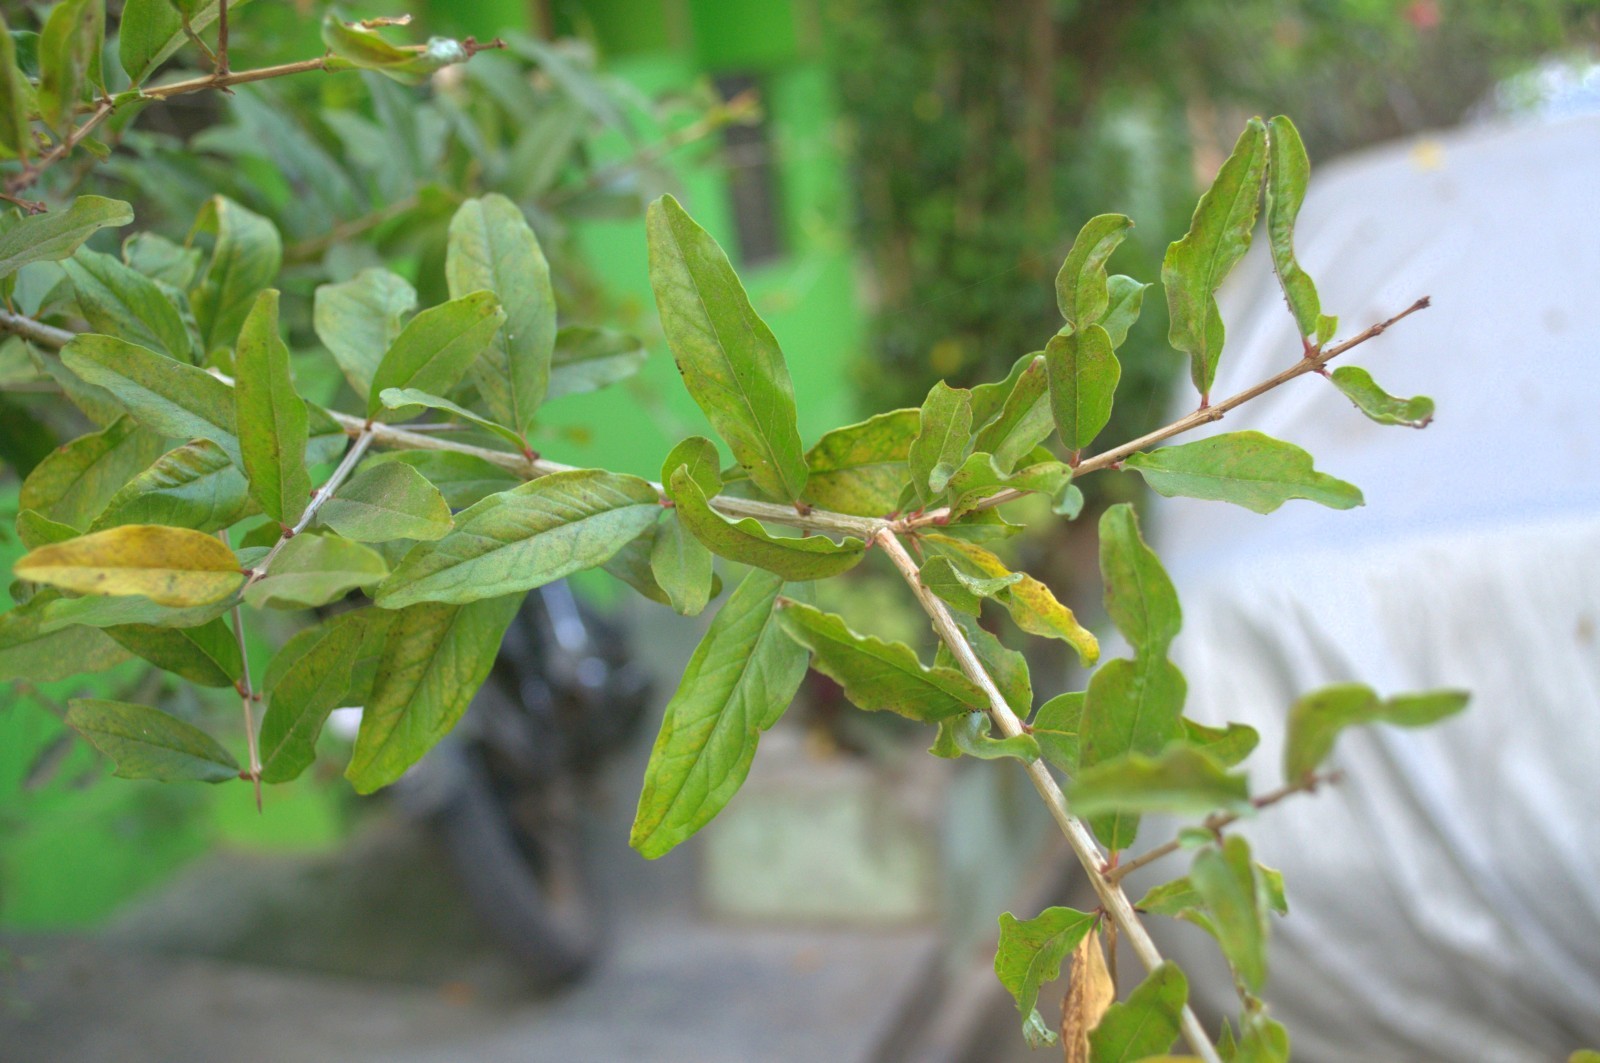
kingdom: Plantae
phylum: Tracheophyta
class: Magnoliopsida
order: Myrtales
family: Lythraceae
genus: Punica
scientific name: Punica granatum
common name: Pomegranate
